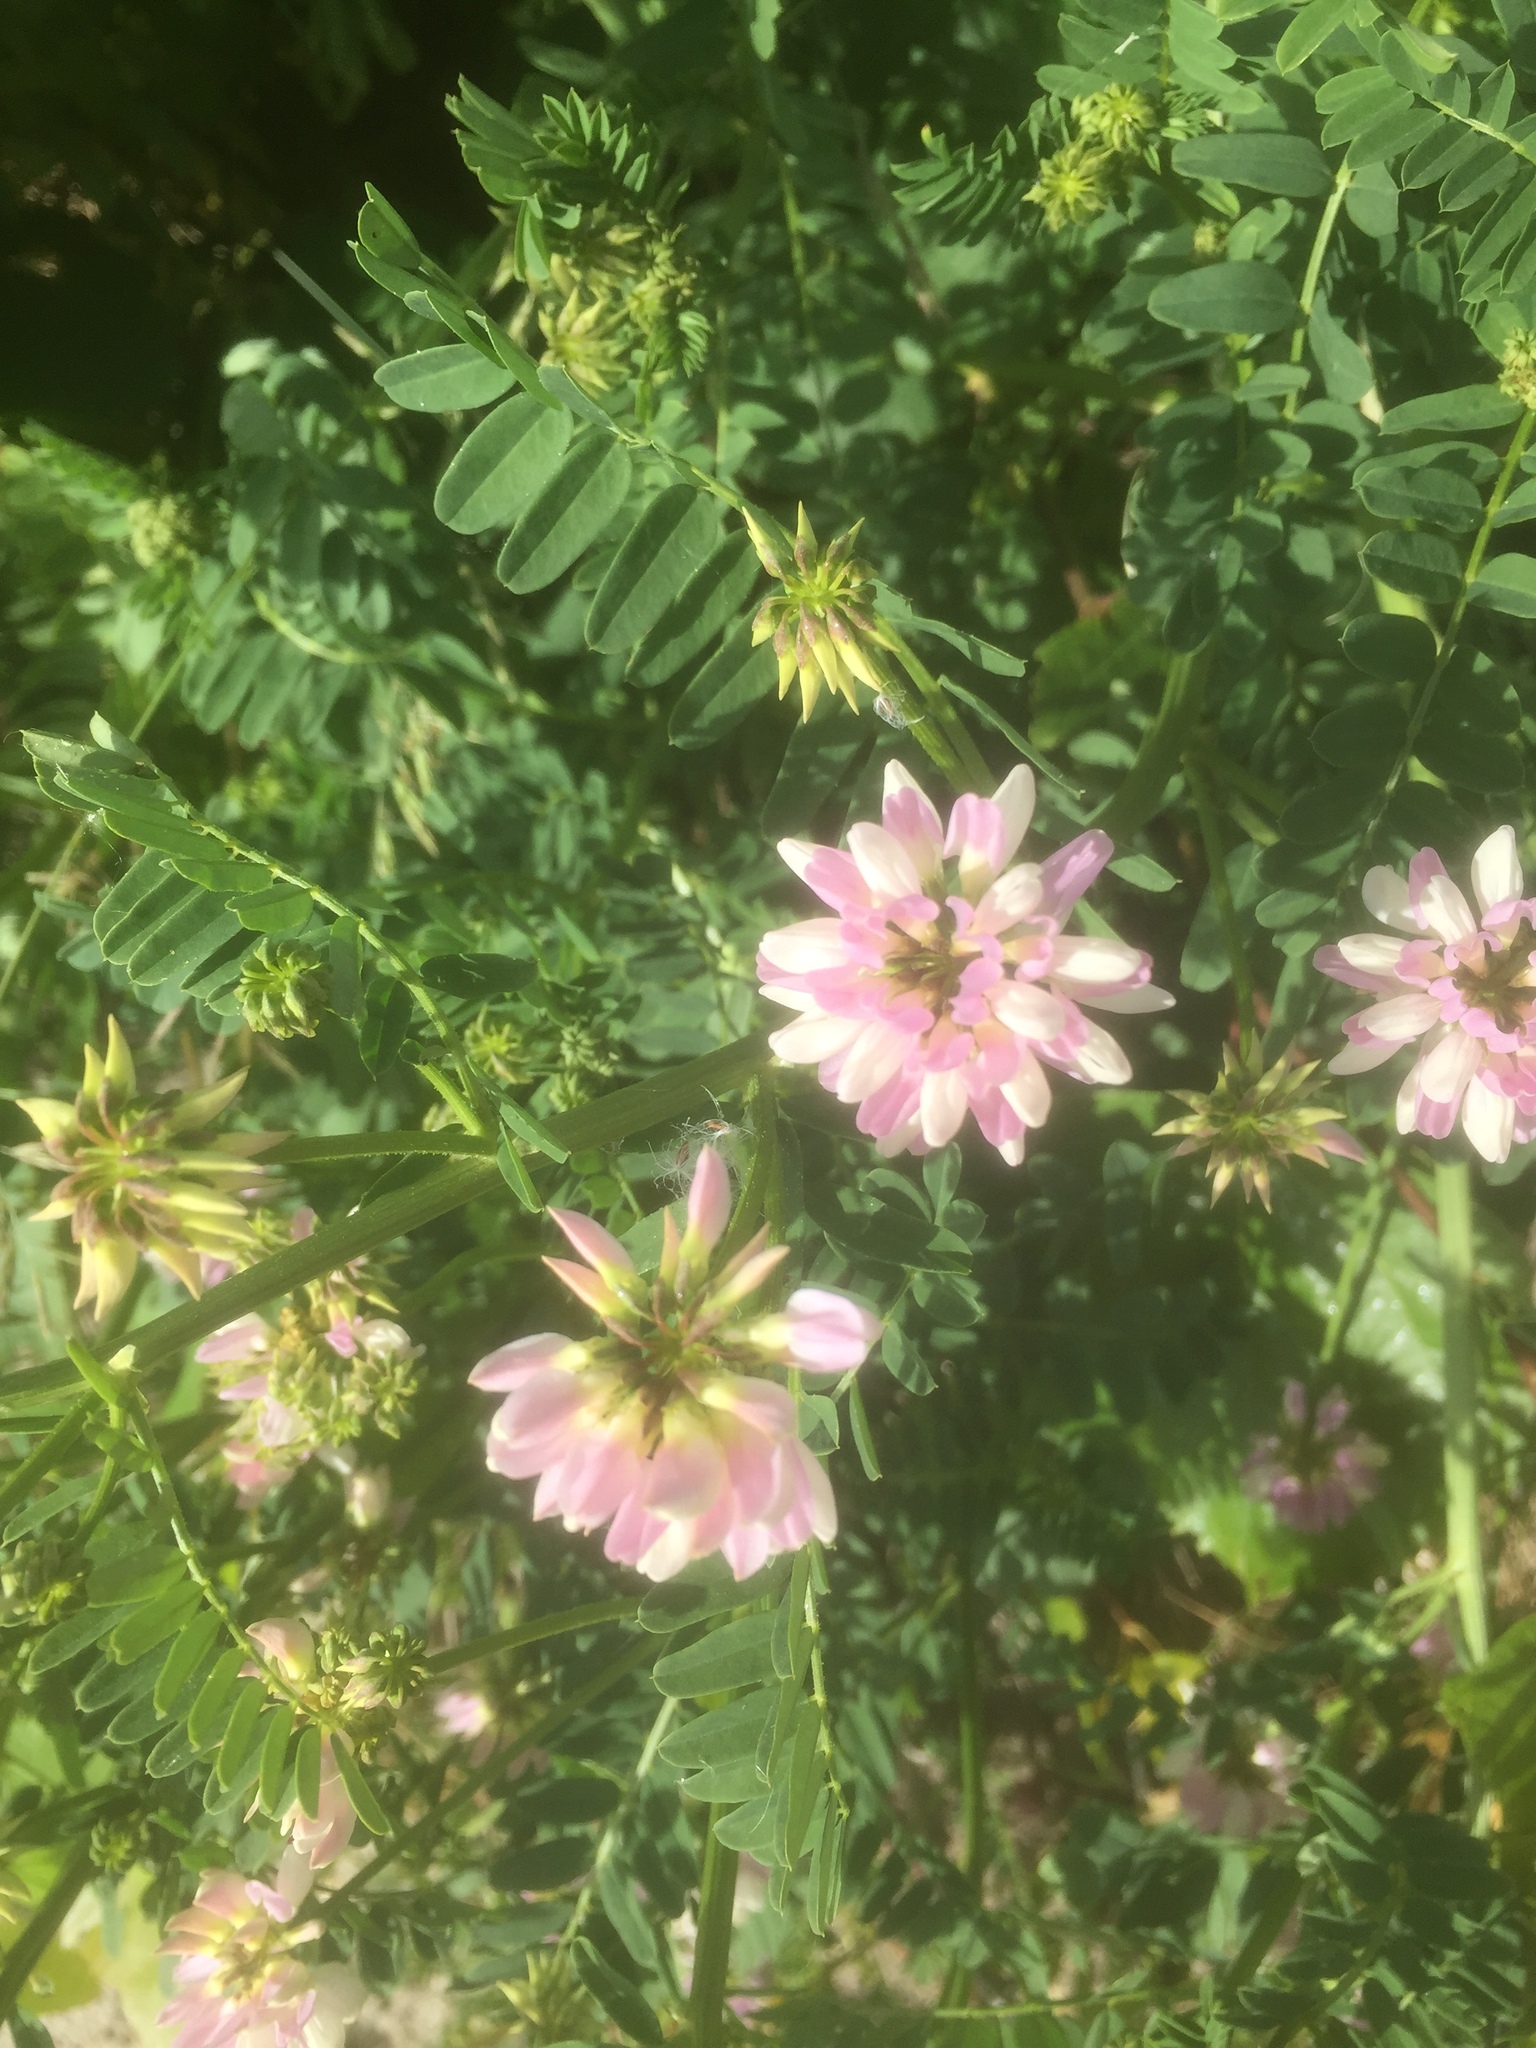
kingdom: Plantae
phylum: Tracheophyta
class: Magnoliopsida
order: Fabales
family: Fabaceae
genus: Coronilla
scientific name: Coronilla varia
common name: Crownvetch
